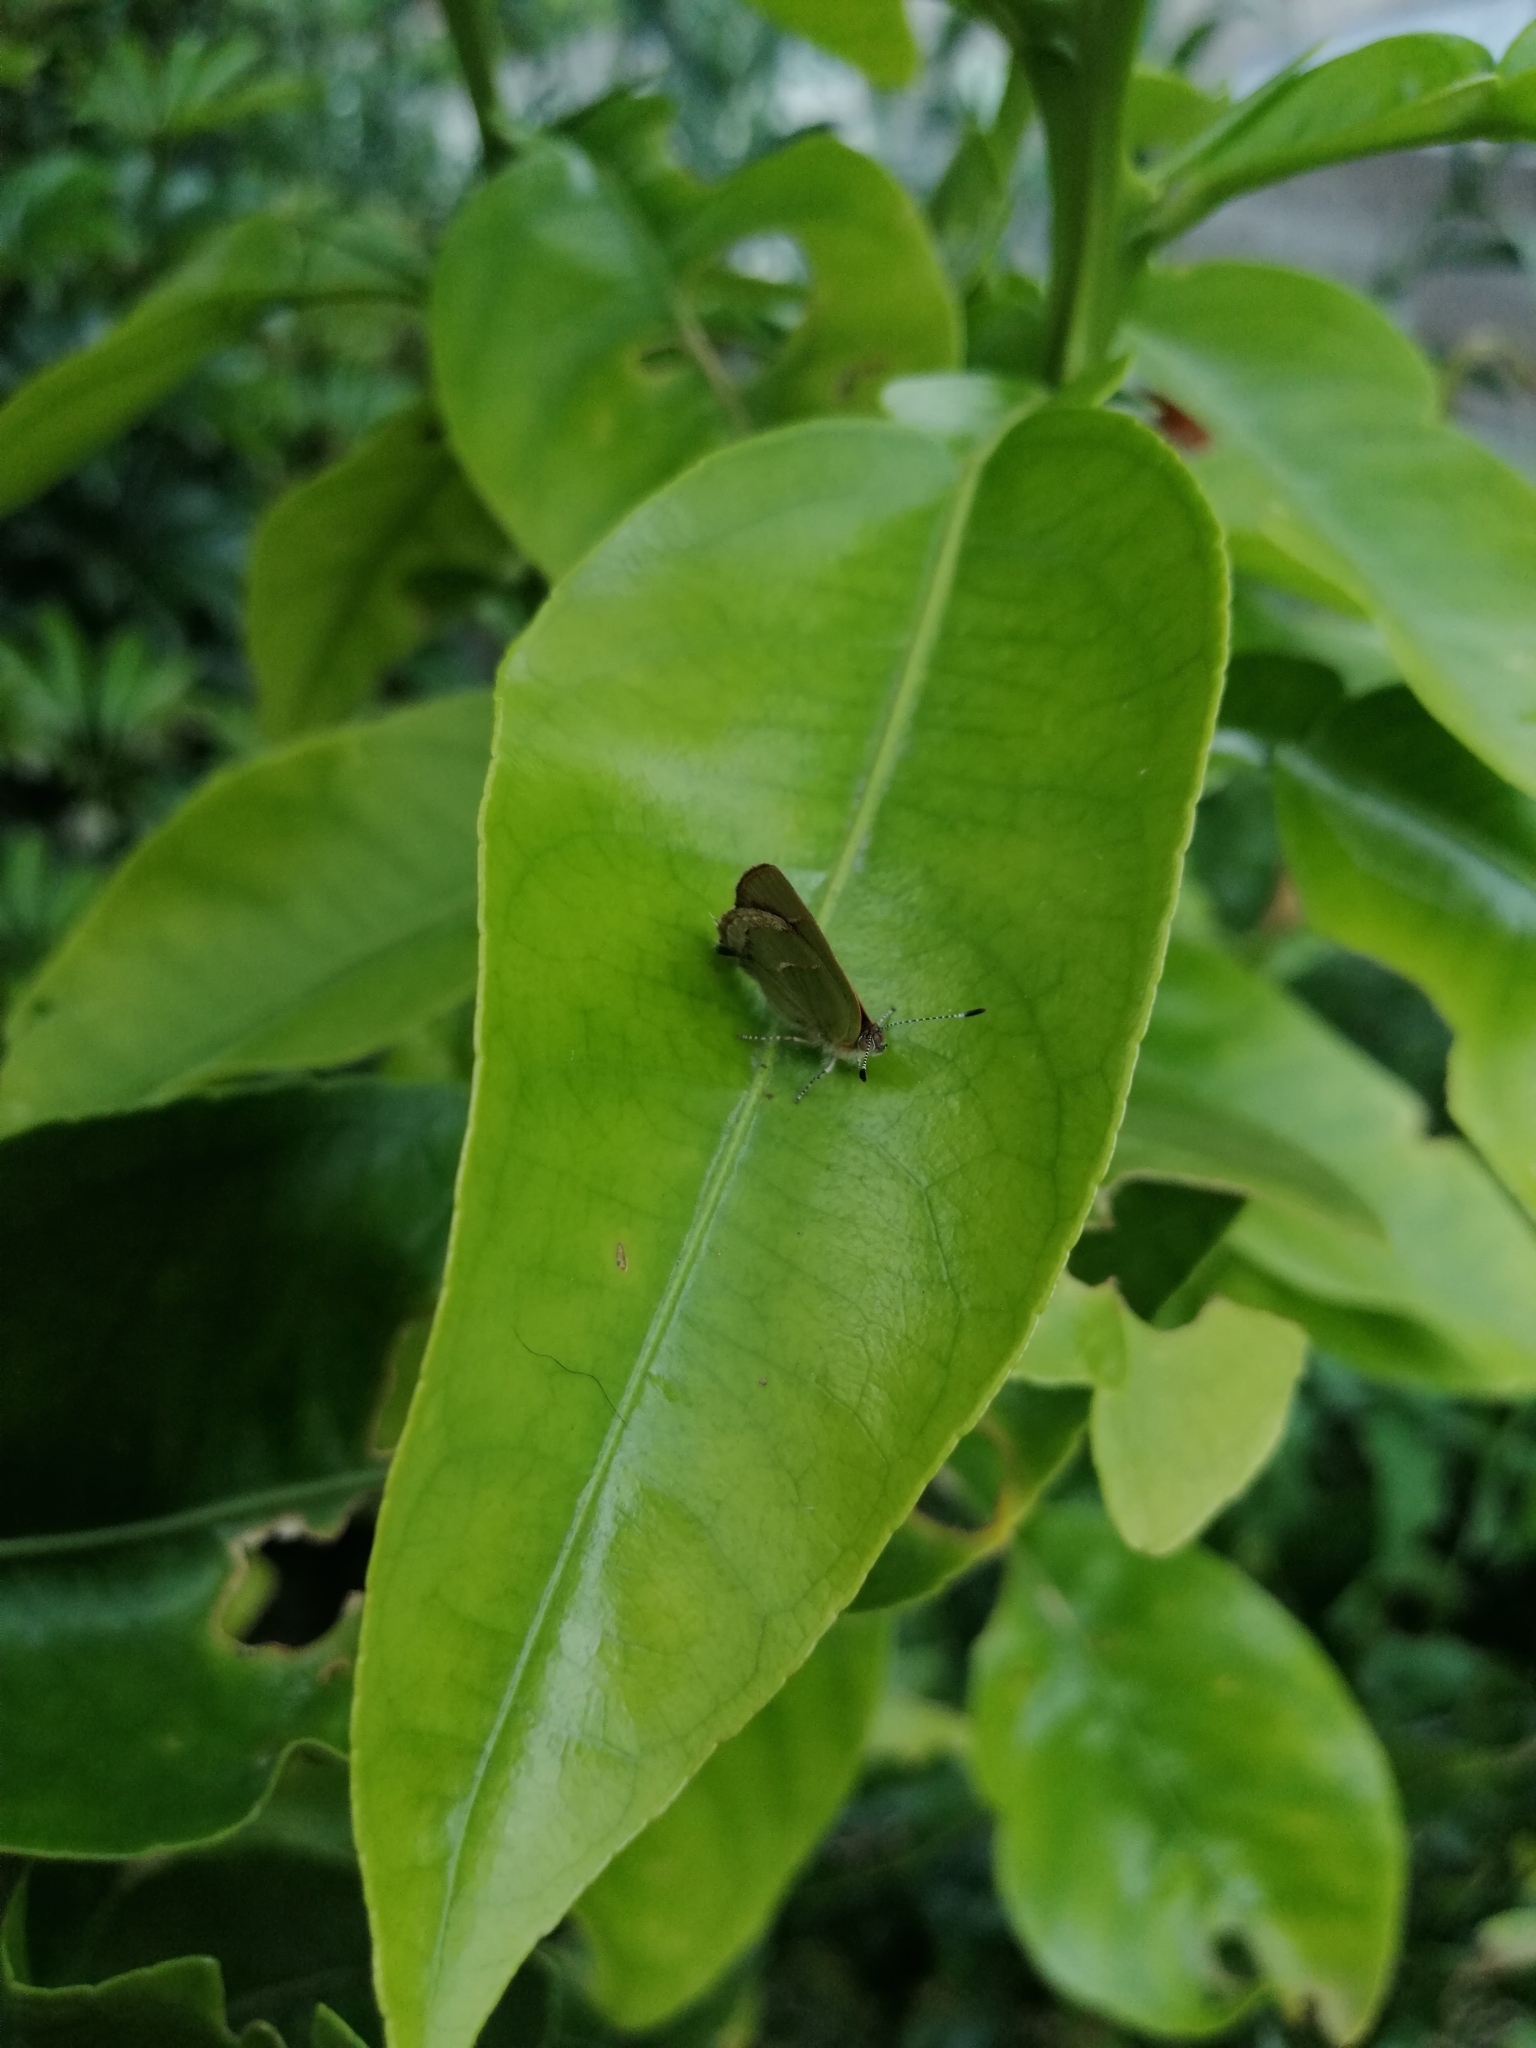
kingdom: Animalia
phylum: Arthropoda
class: Insecta
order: Lepidoptera
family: Lycaenidae
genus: Chlorostrymon
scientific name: Chlorostrymon simaethis
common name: Silver-banded hairstreak
